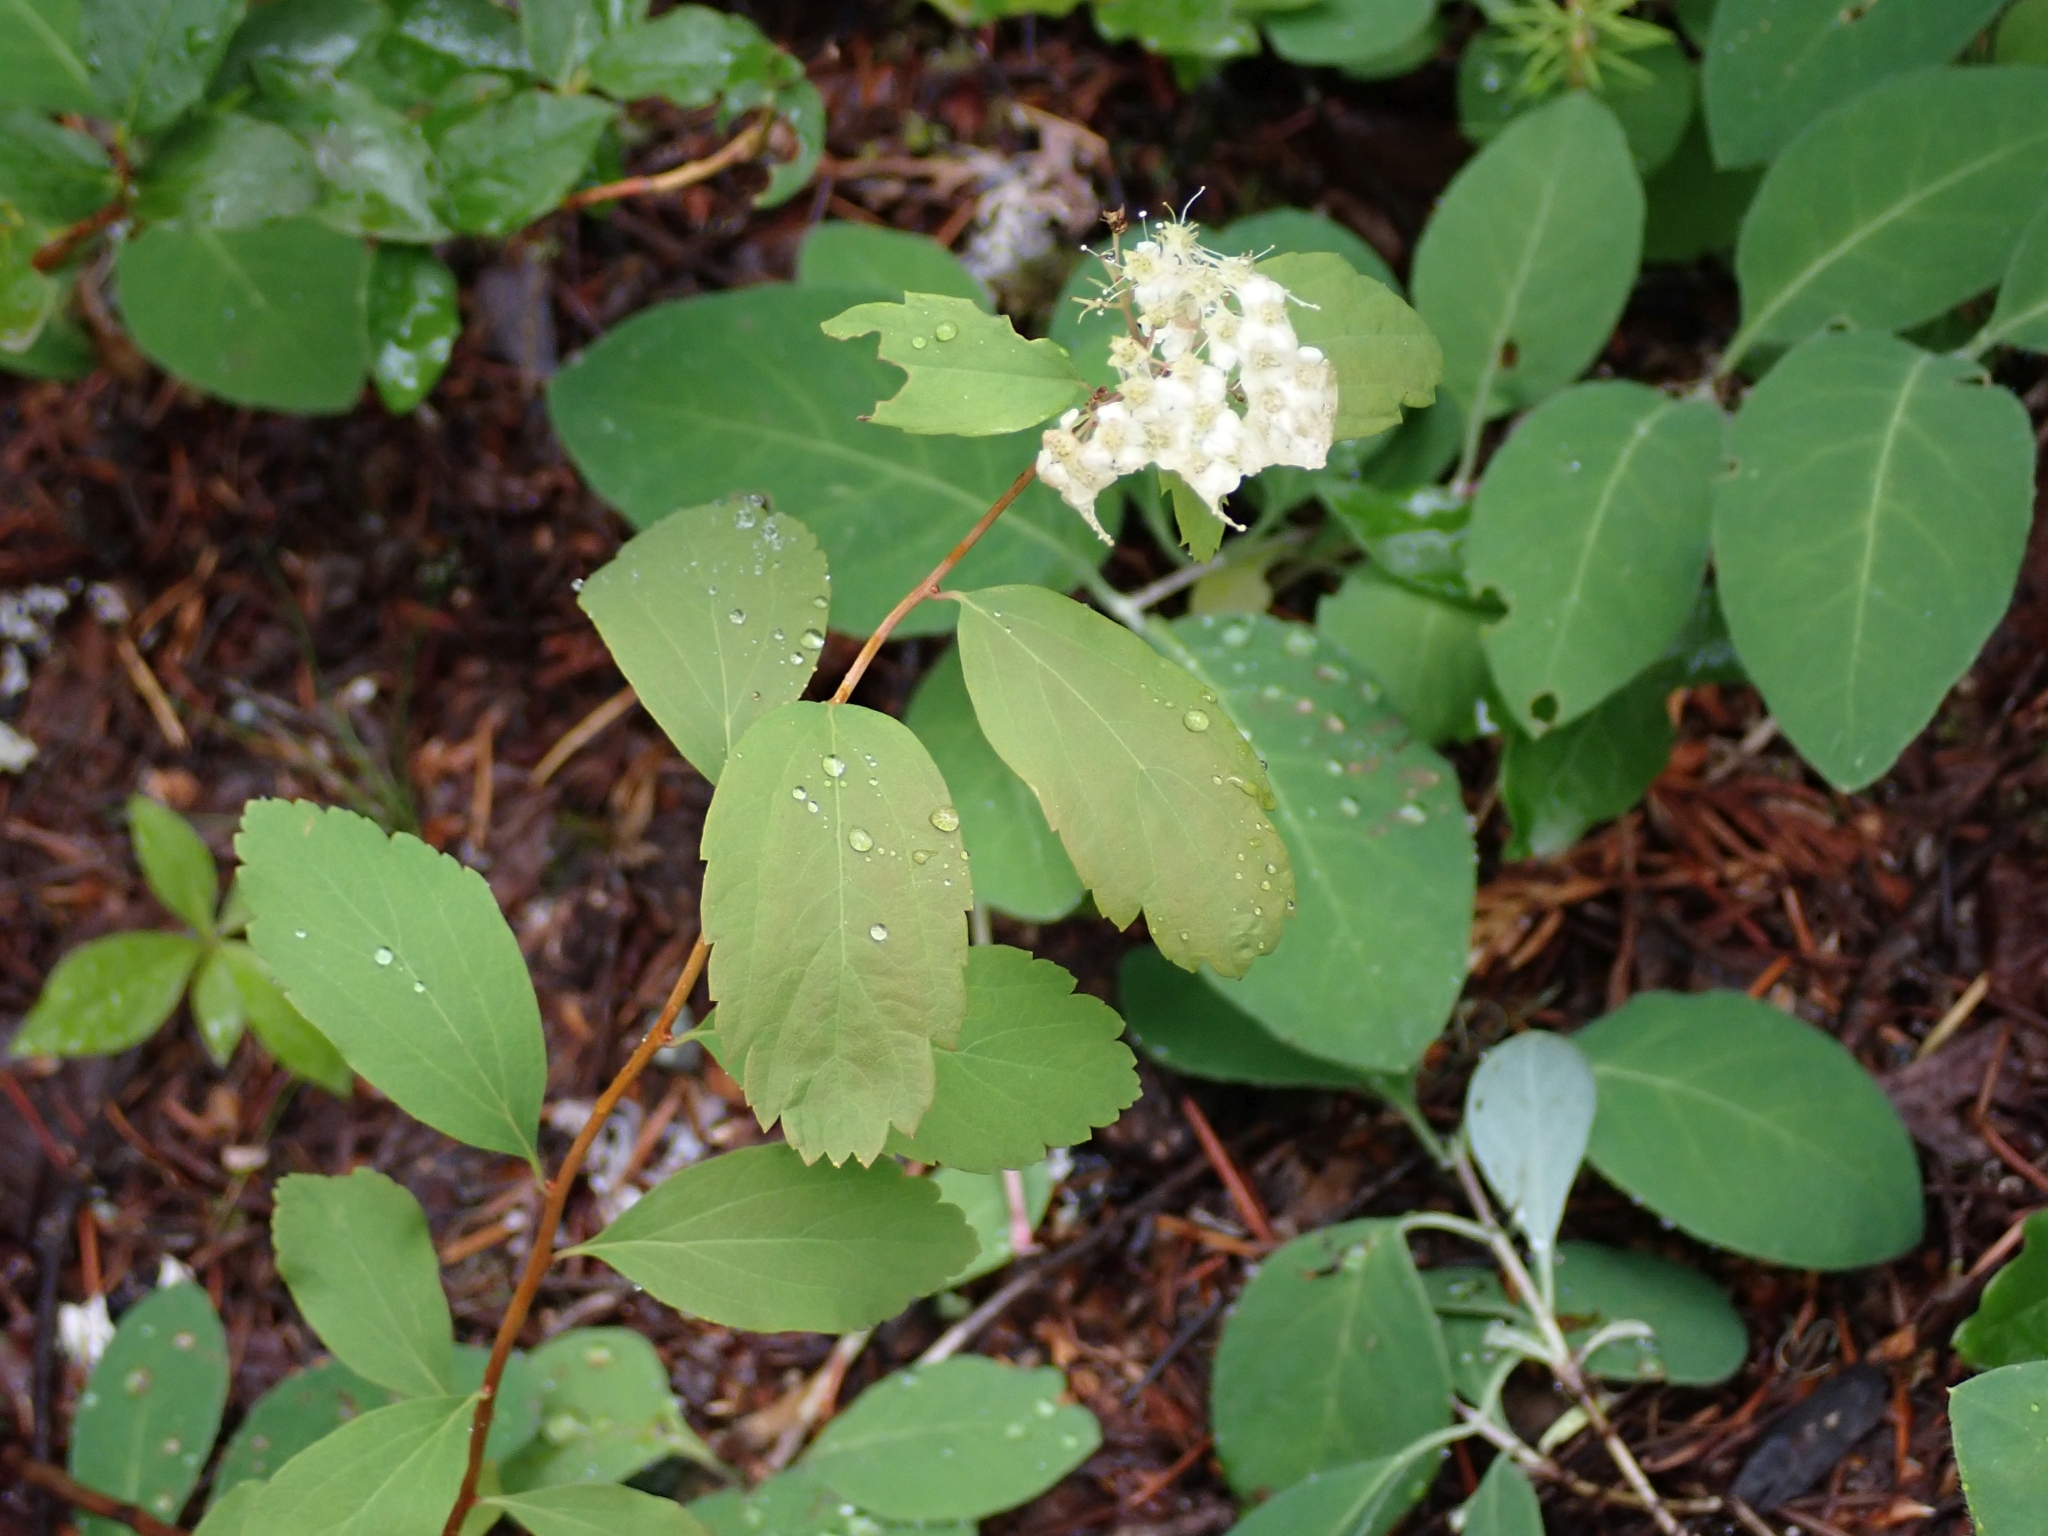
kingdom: Plantae
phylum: Tracheophyta
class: Magnoliopsida
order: Rosales
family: Rosaceae
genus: Spiraea
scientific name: Spiraea lucida
